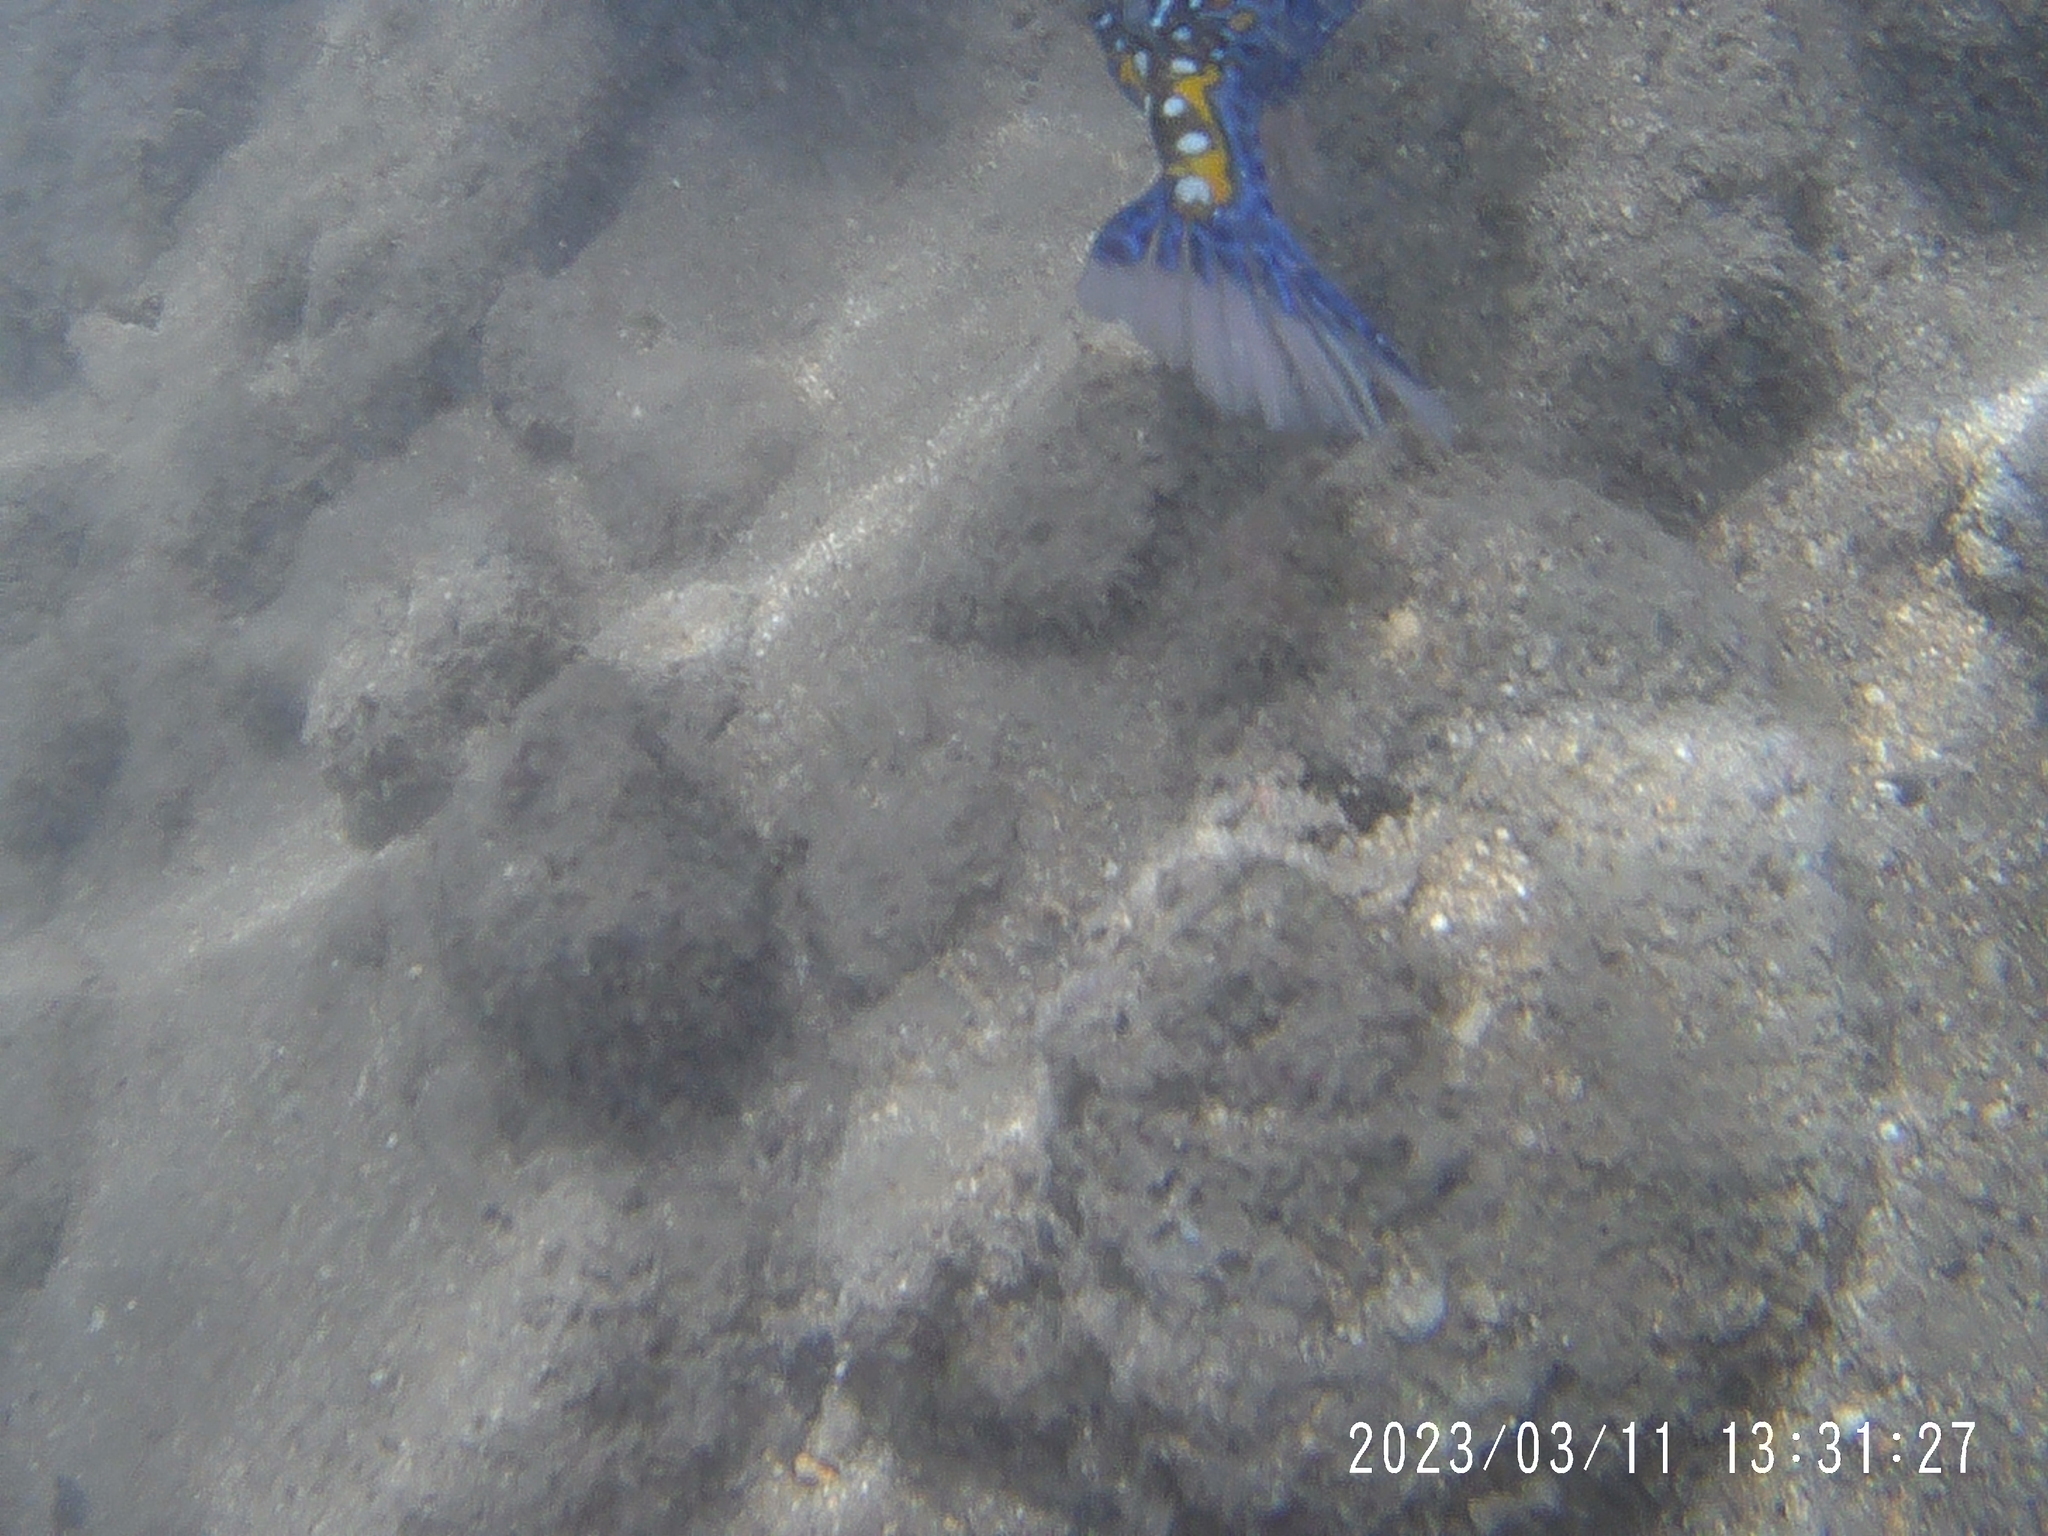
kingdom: Animalia
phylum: Chordata
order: Tetraodontiformes
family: Ostraciidae
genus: Ostracion
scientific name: Ostracion meleagris
